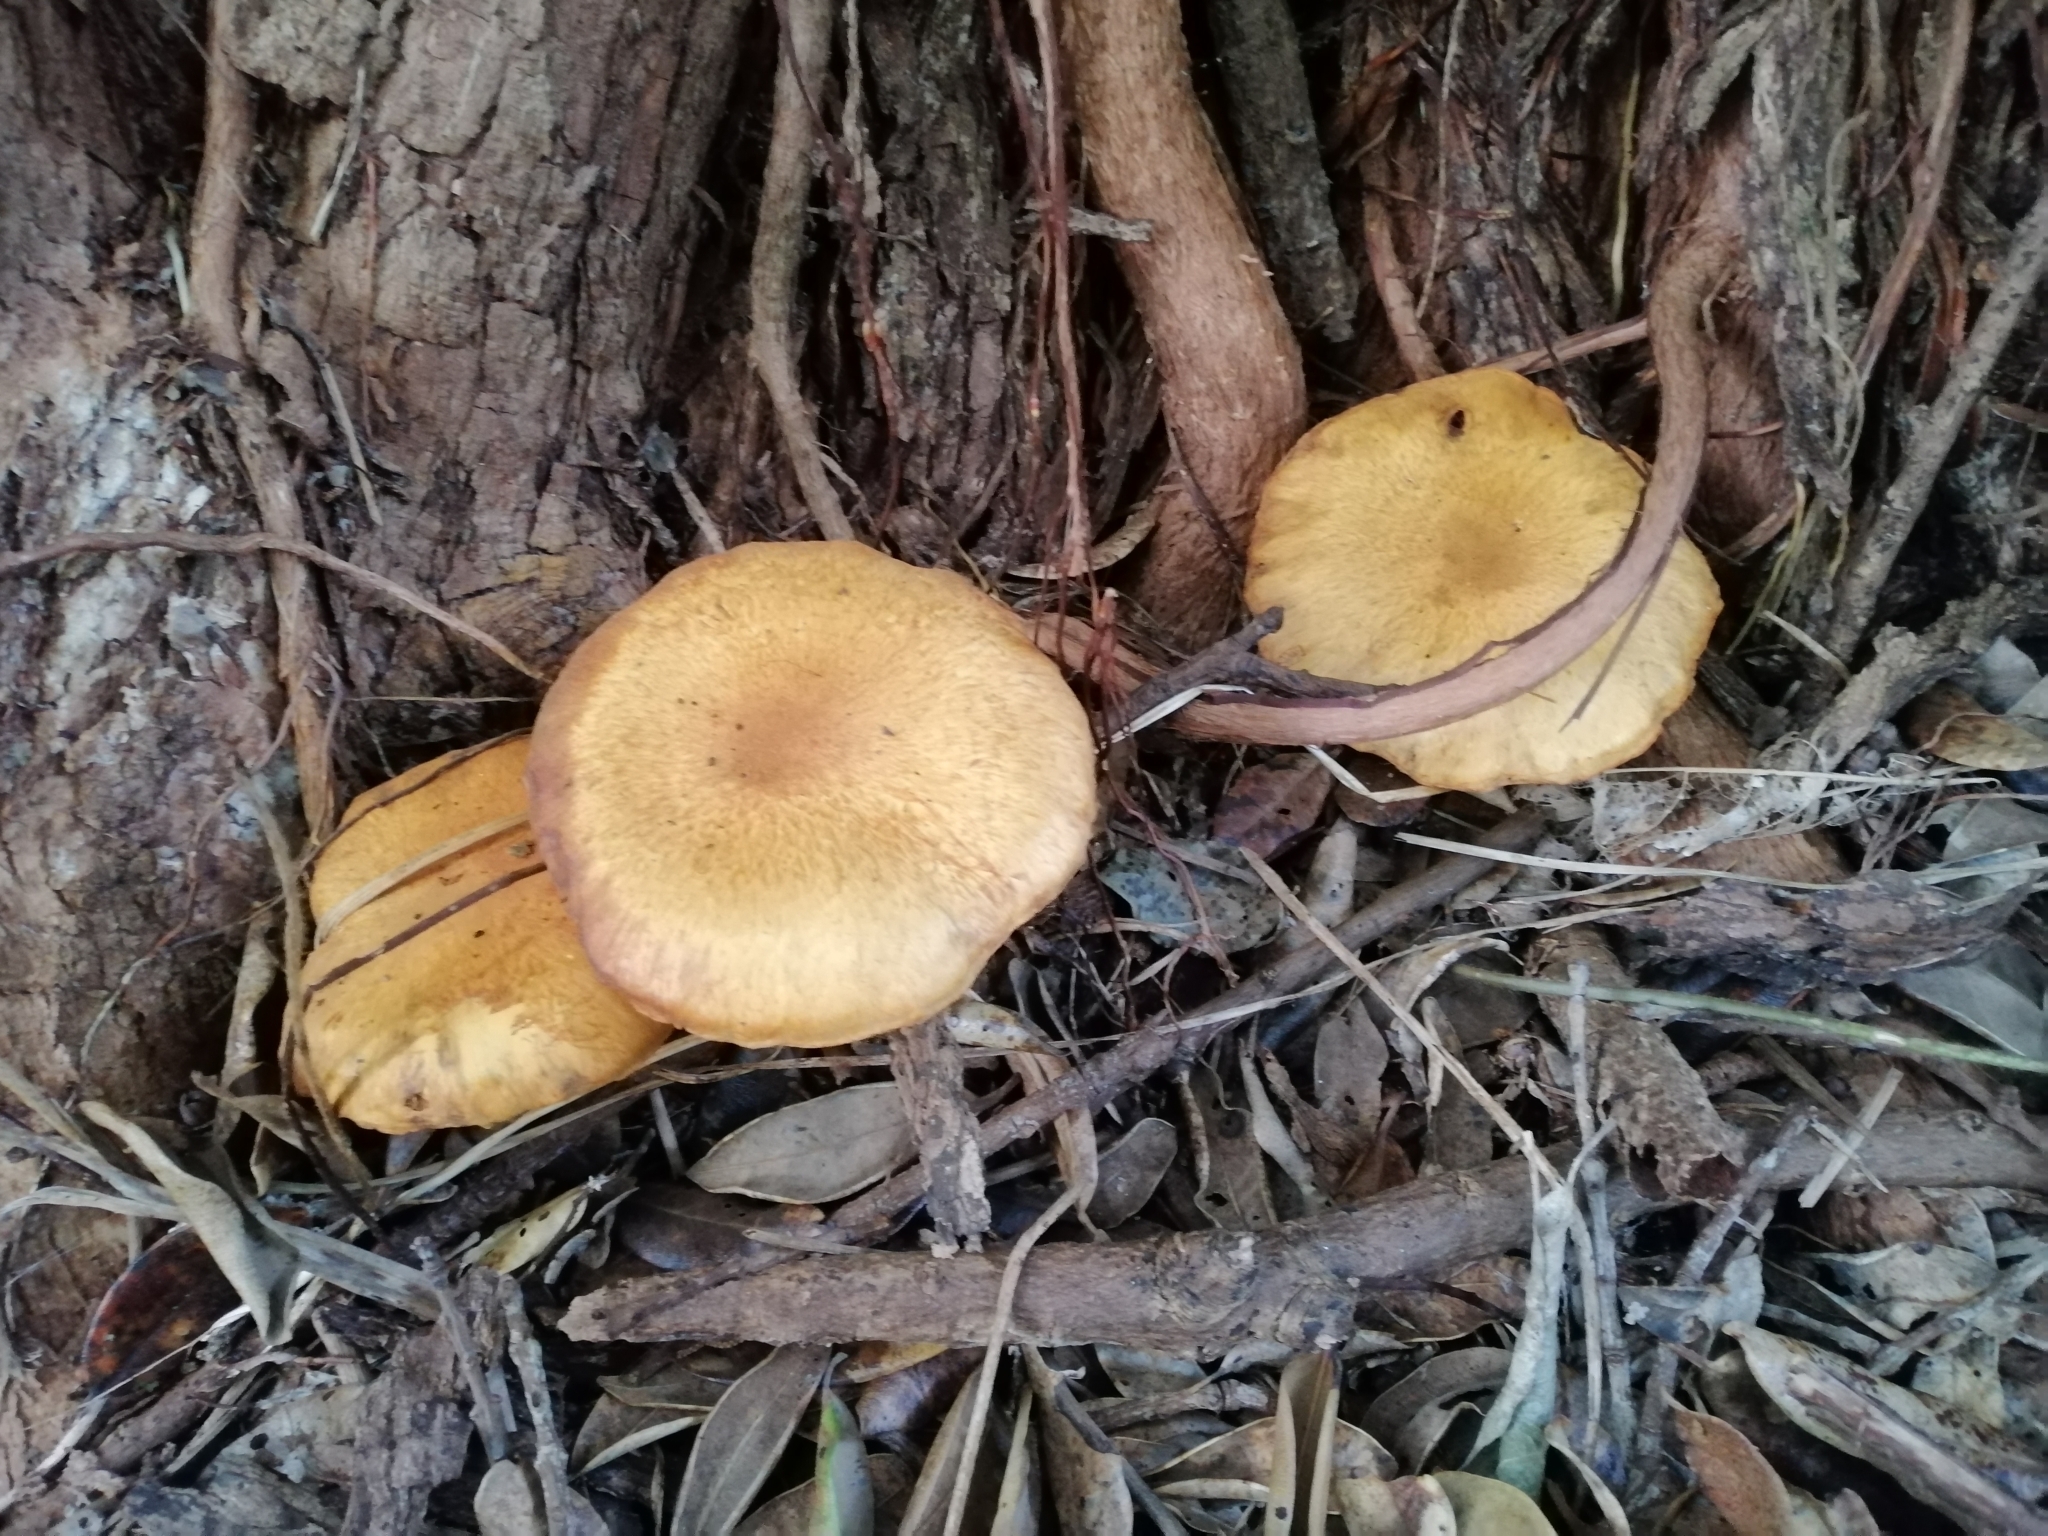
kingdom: Fungi
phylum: Basidiomycota
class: Agaricomycetes
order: Agaricales
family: Hymenogastraceae
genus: Gymnopilus
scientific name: Gymnopilus junonius
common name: Spectacular rustgill
